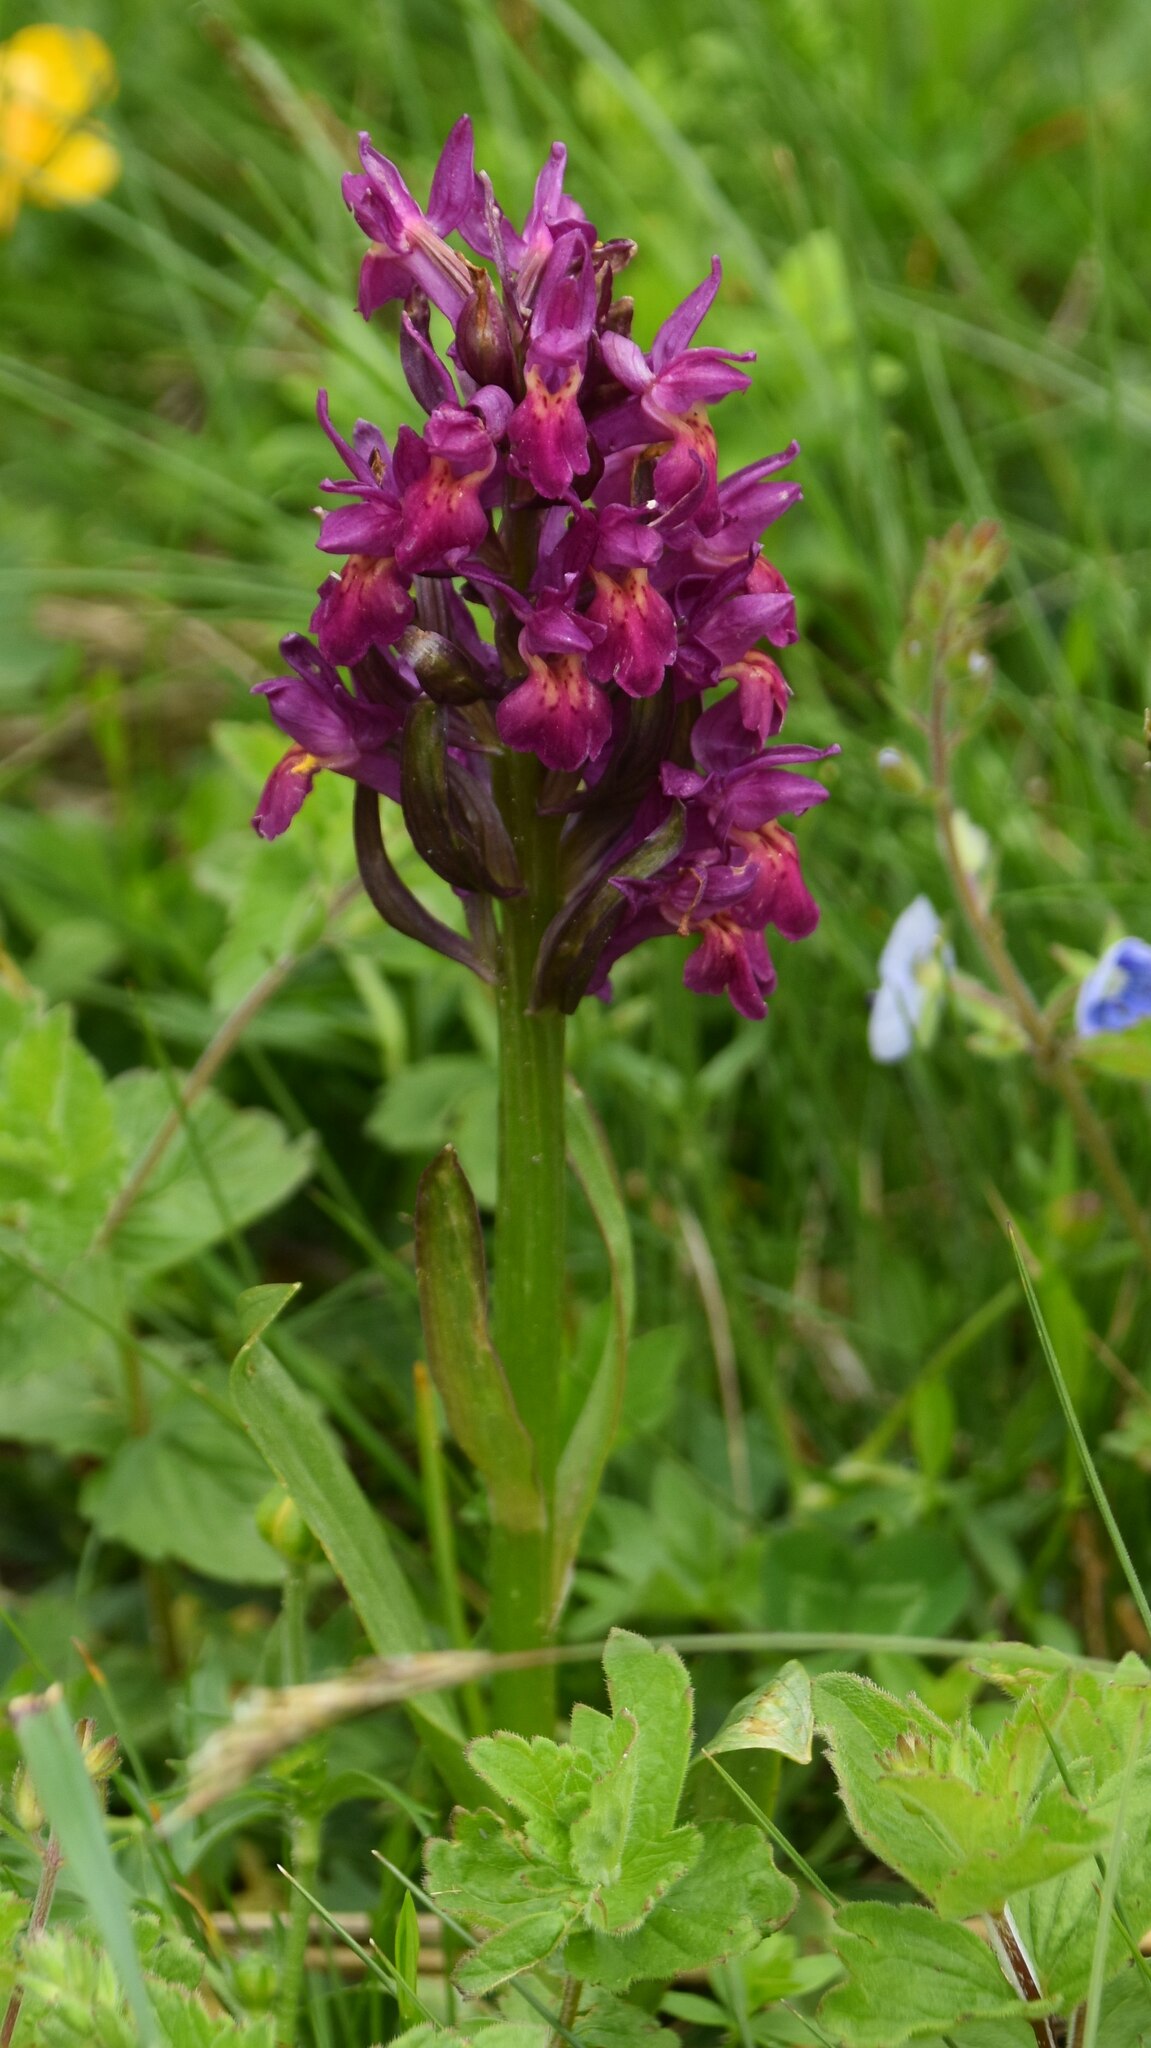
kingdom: Plantae
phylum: Tracheophyta
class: Liliopsida
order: Asparagales
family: Orchidaceae
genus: Dactylorhiza
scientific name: Dactylorhiza sambucina
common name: Elder-flowered orchid
